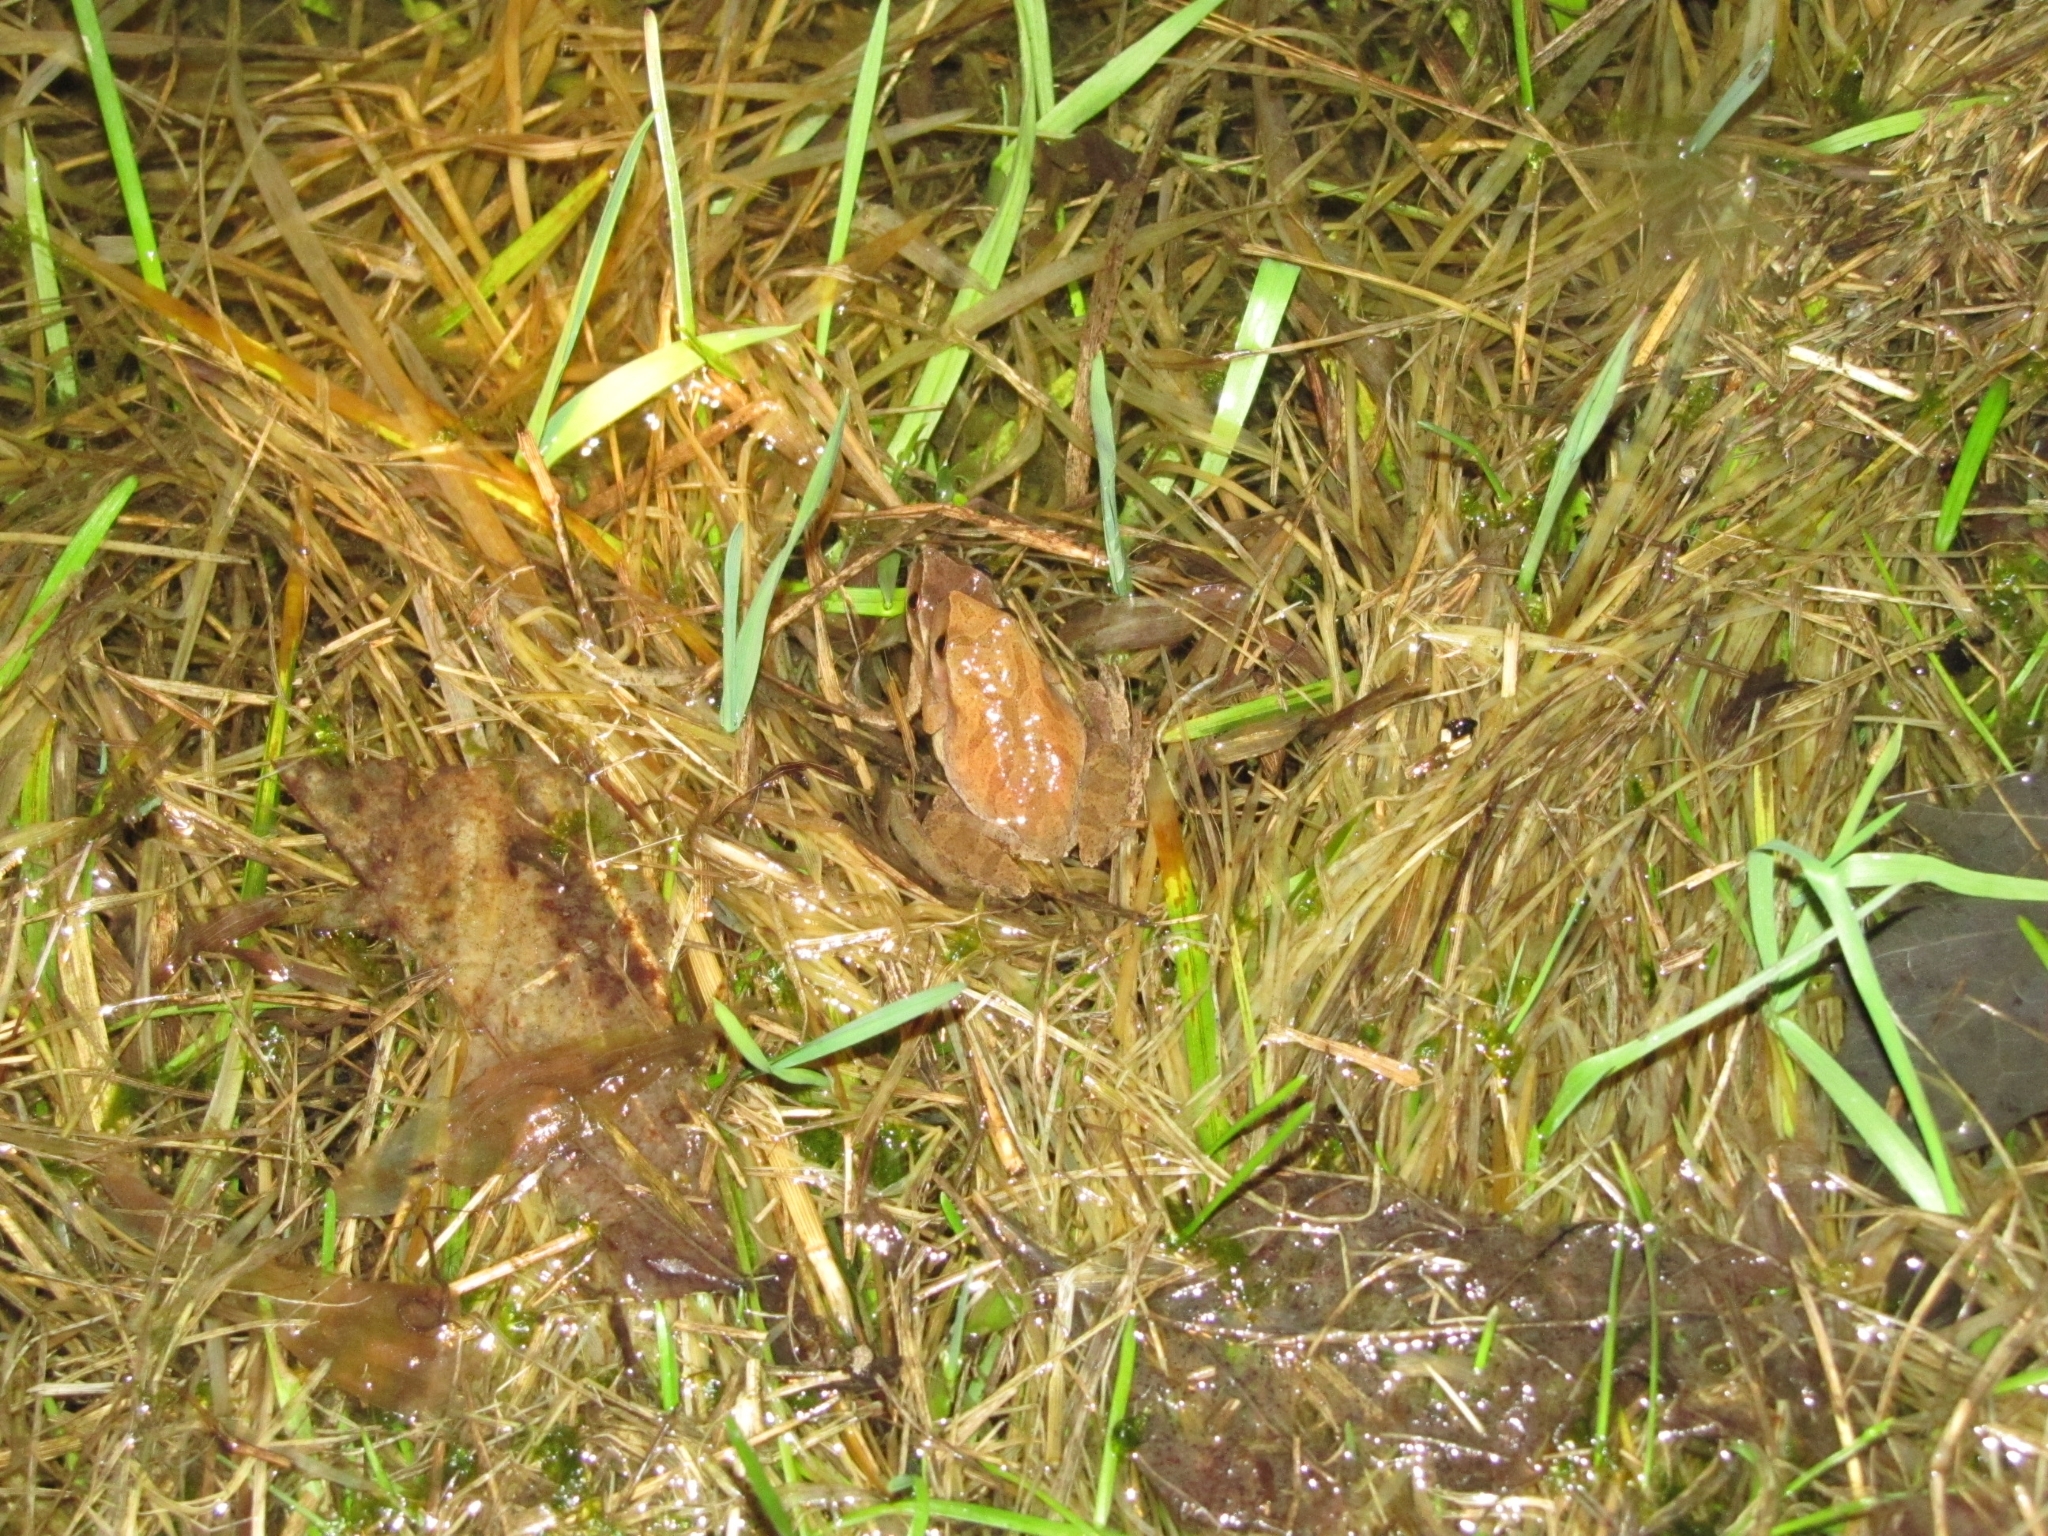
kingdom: Animalia
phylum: Chordata
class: Amphibia
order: Anura
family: Hylidae
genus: Pseudacris
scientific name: Pseudacris crucifer
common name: Spring peeper
